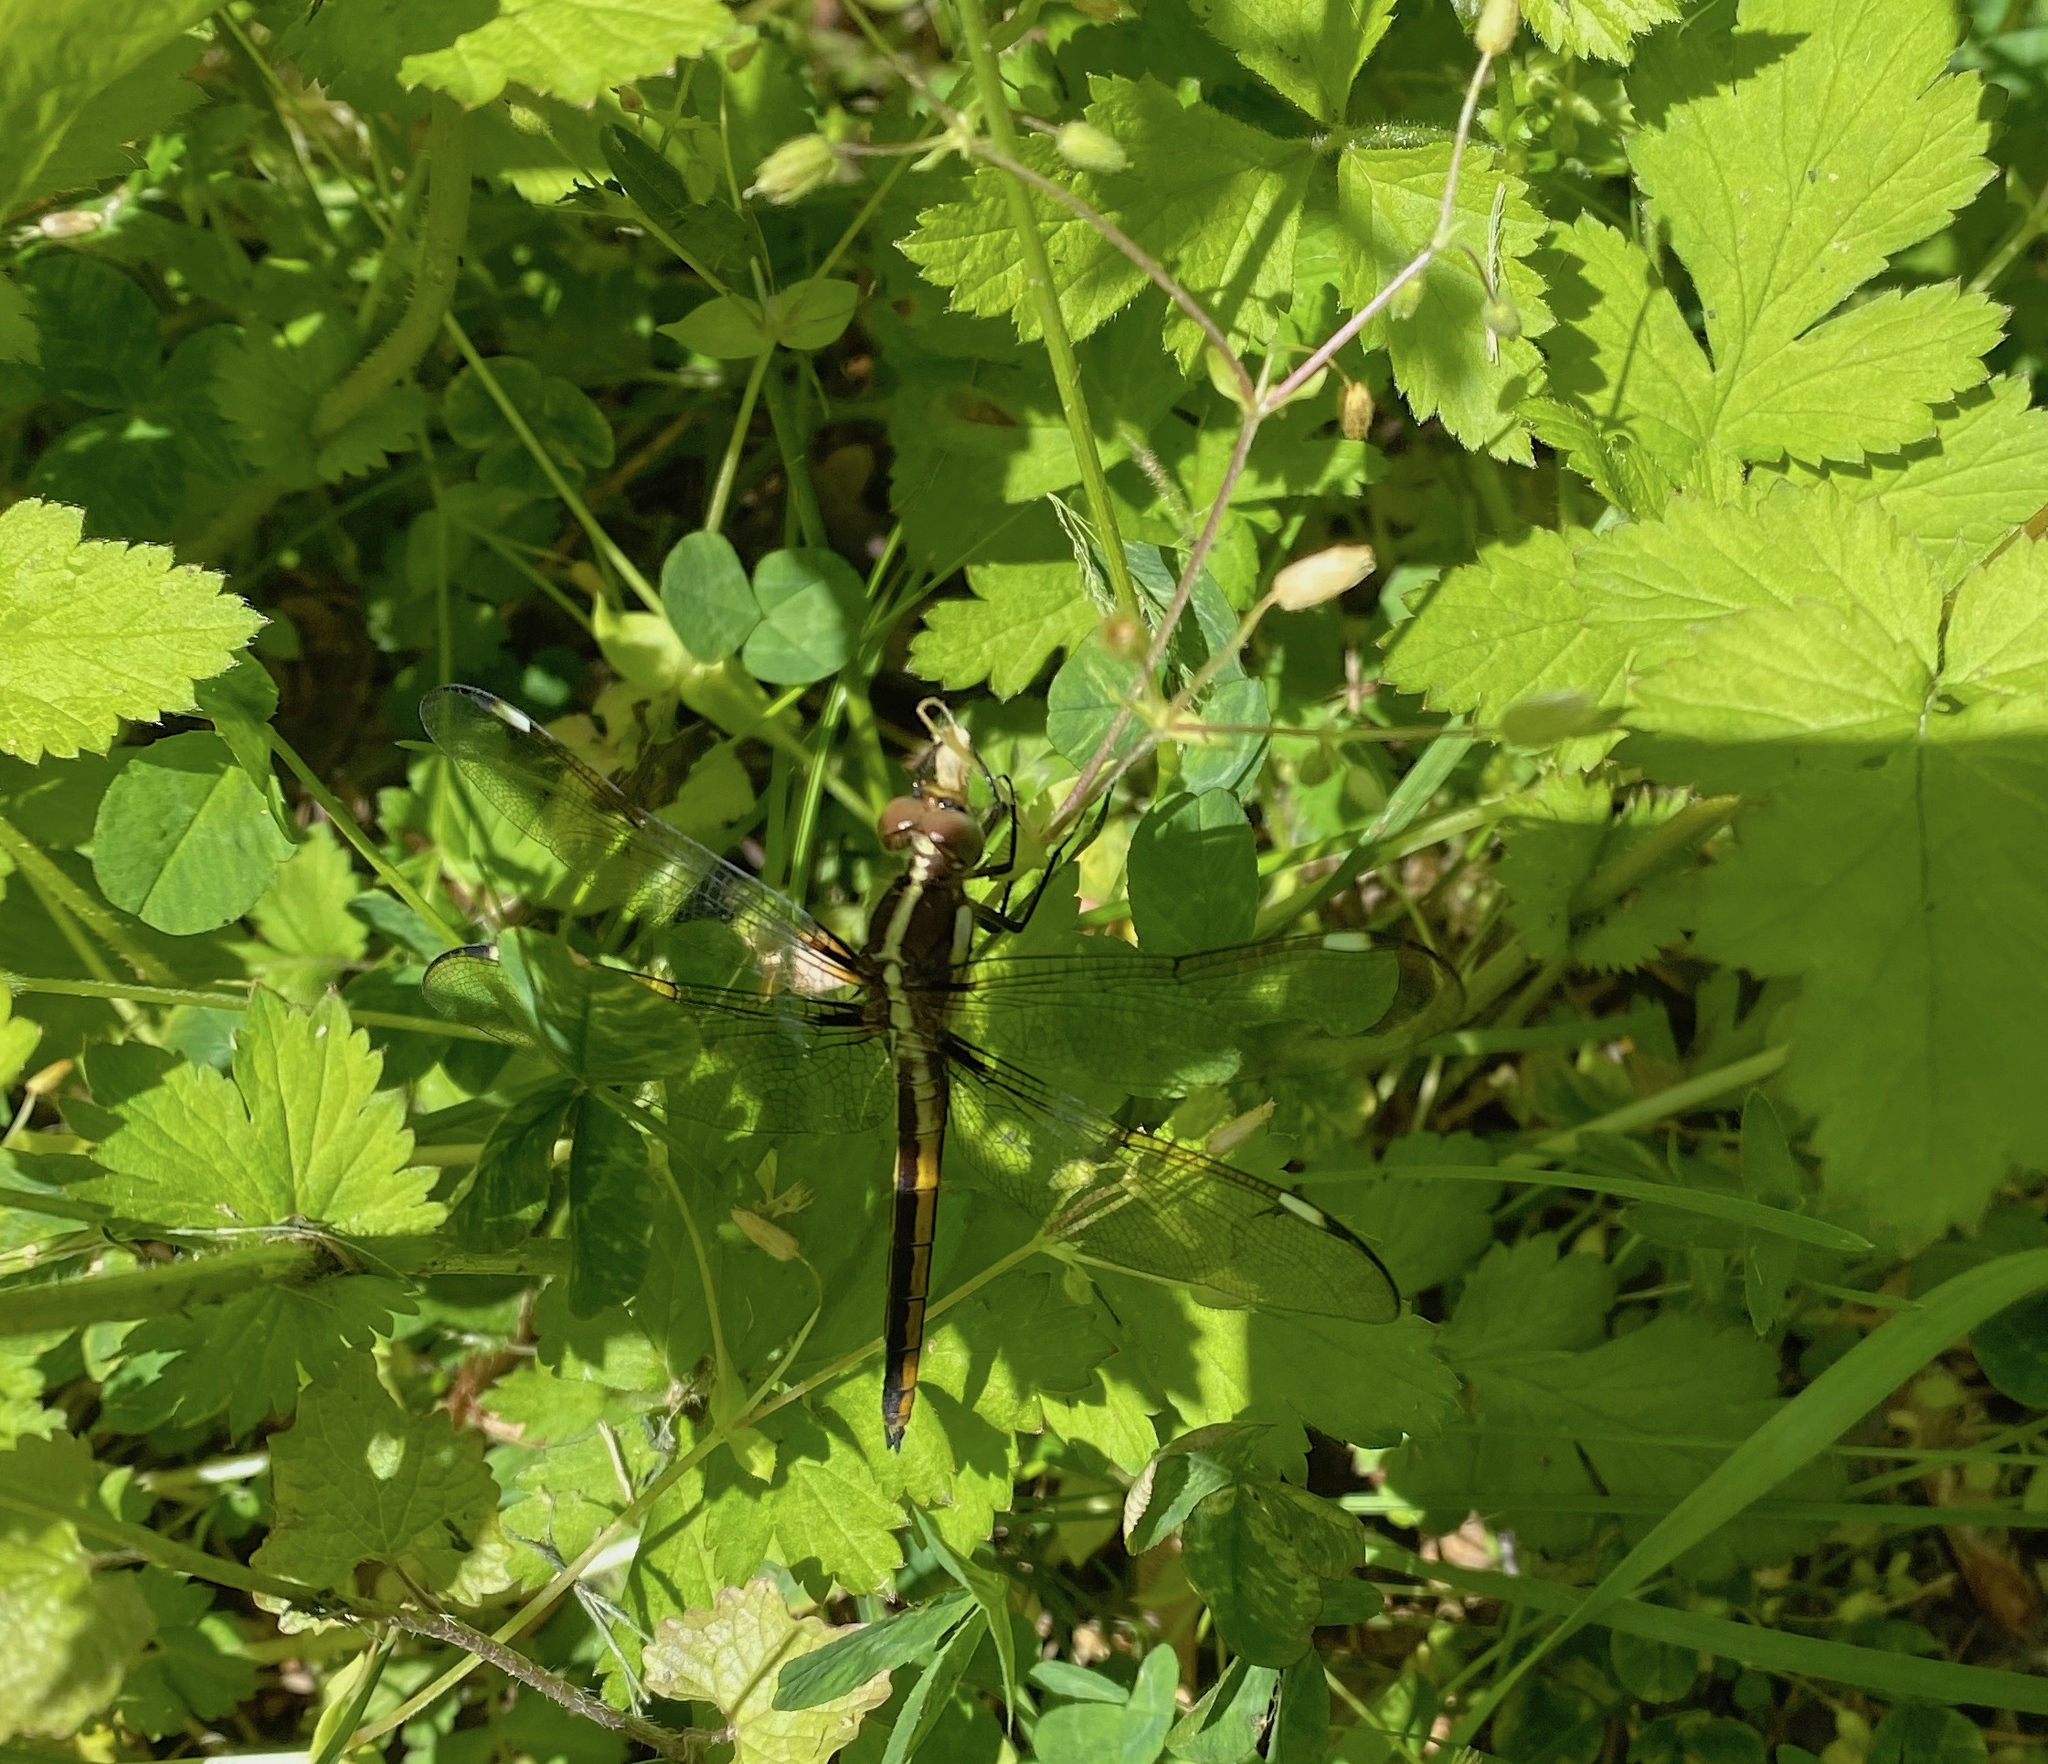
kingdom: Animalia
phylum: Arthropoda
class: Insecta
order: Odonata
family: Libellulidae
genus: Libellula
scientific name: Libellula cyanea
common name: Spangled skimmer
